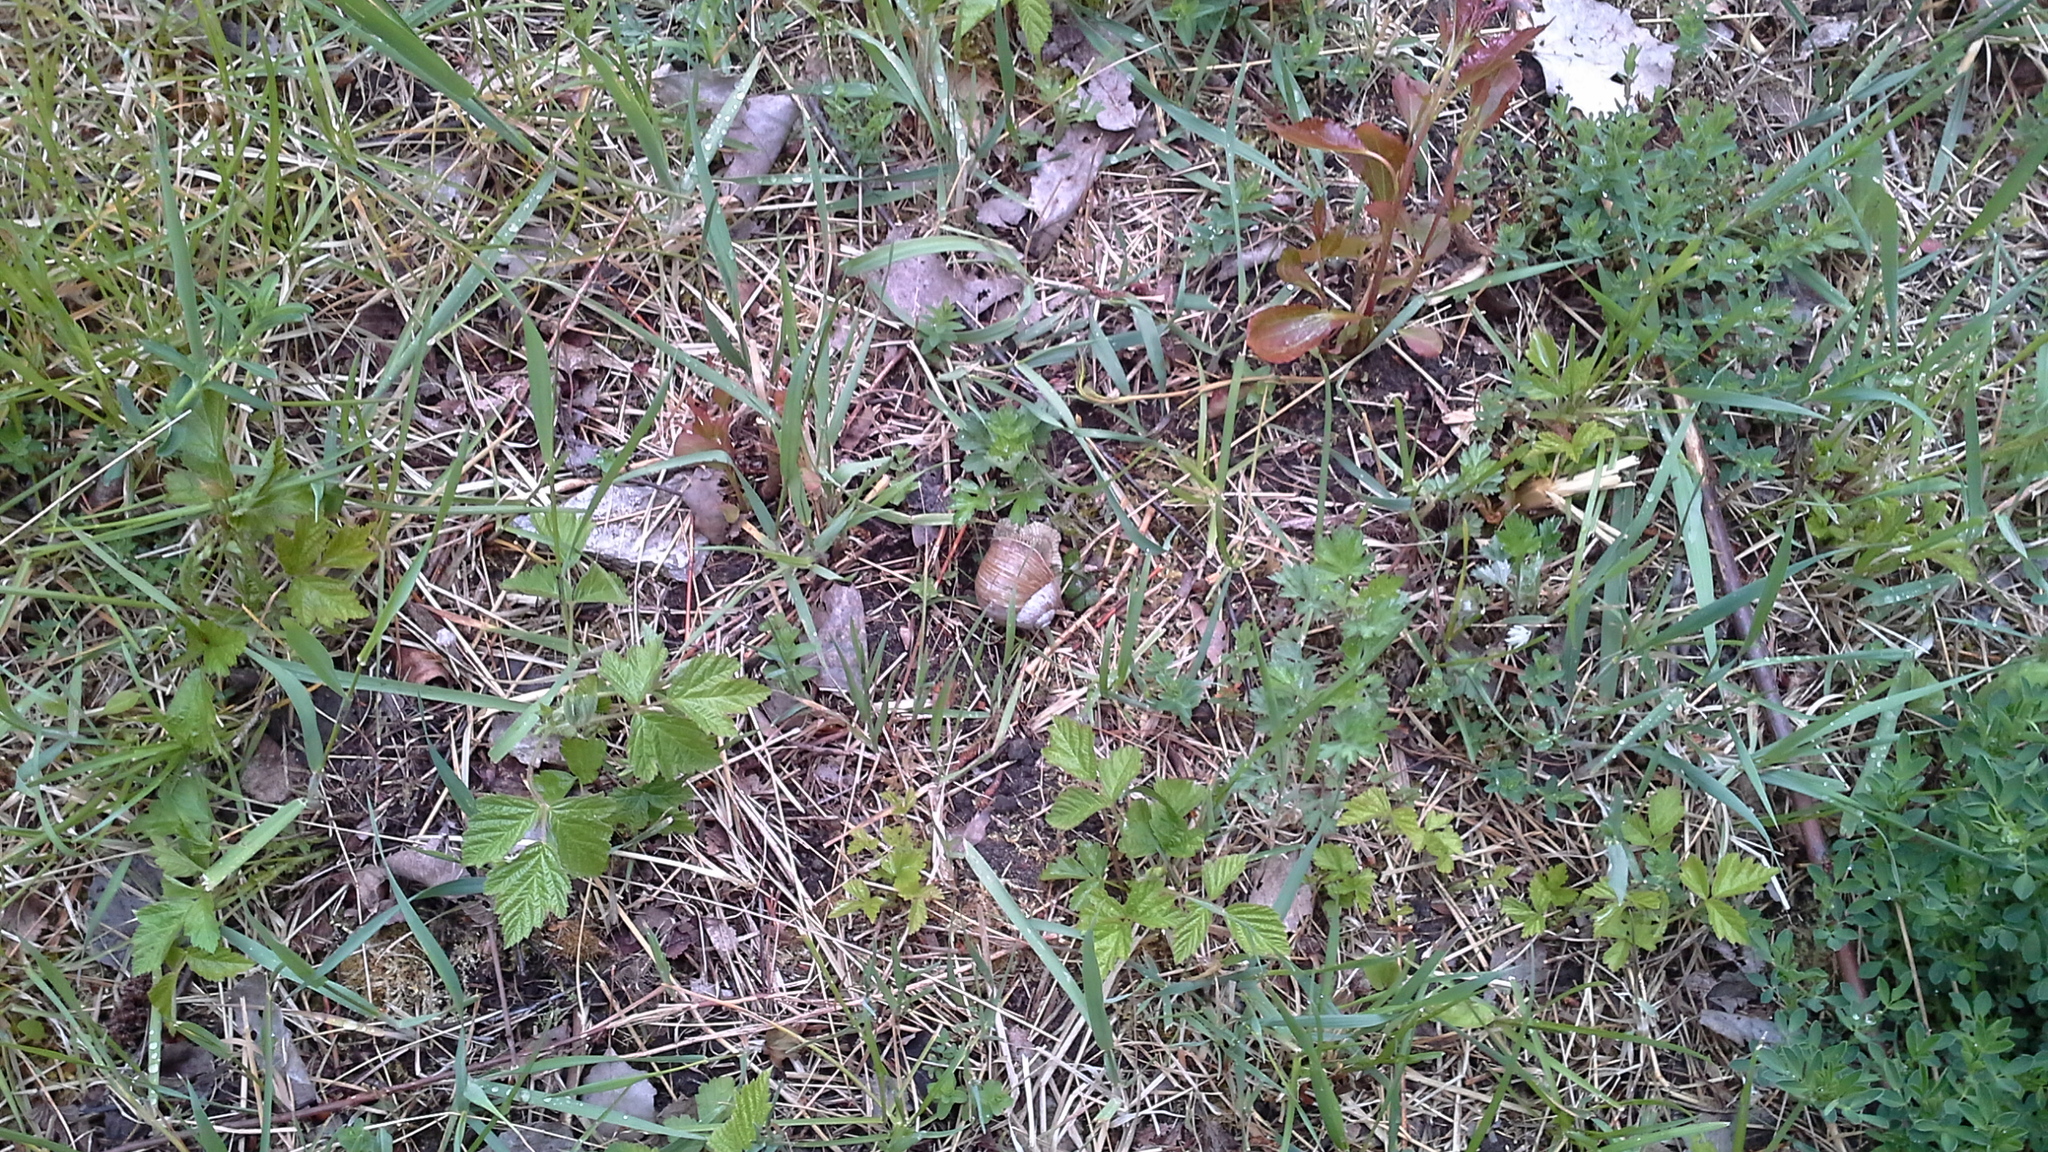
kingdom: Animalia
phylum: Mollusca
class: Gastropoda
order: Stylommatophora
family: Helicidae
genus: Helix
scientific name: Helix pomatia
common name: Roman snail
